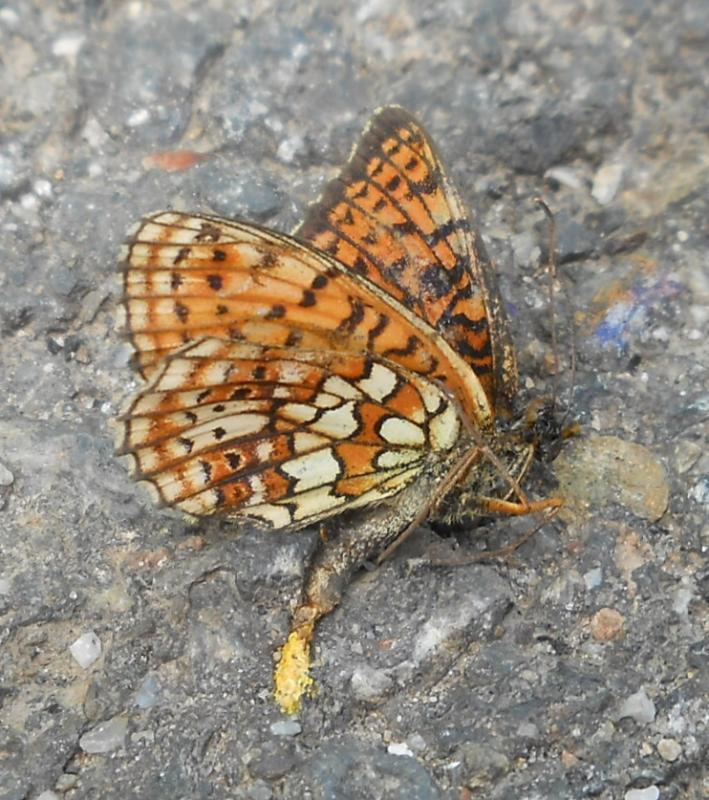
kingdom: Animalia
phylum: Arthropoda
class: Insecta
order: Lepidoptera
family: Nymphalidae
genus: Brenthis
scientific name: Brenthis hecate
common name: Twin-spot fritillary
